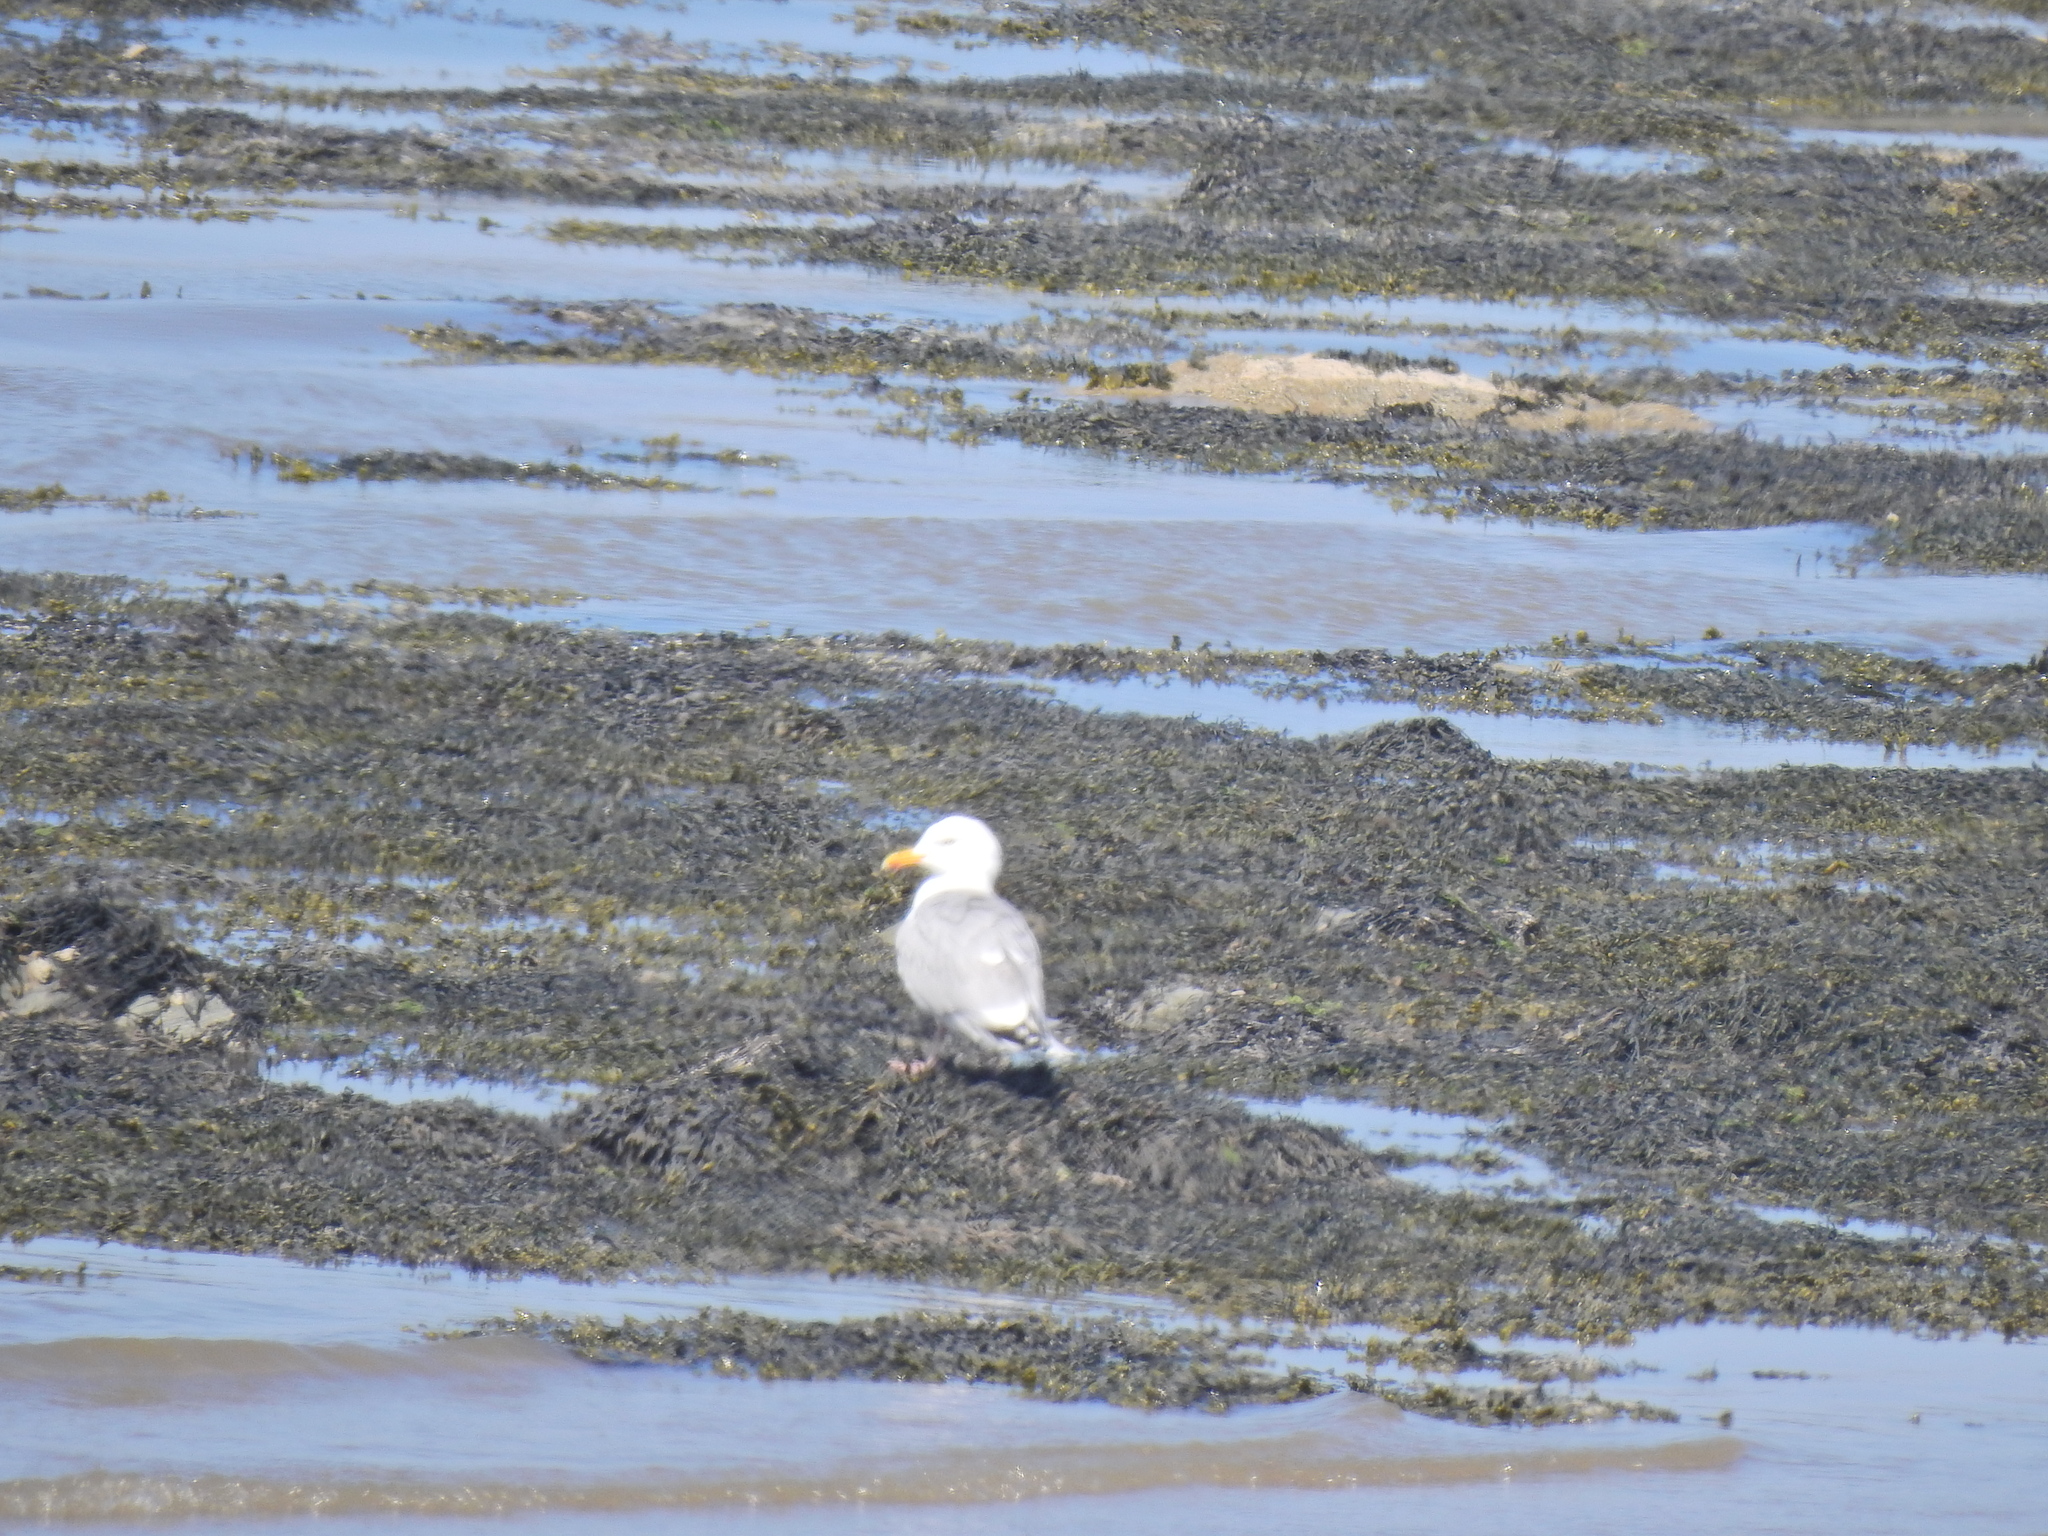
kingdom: Animalia
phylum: Chordata
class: Aves
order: Charadriiformes
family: Laridae
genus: Larus
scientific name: Larus argentatus
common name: Herring gull
